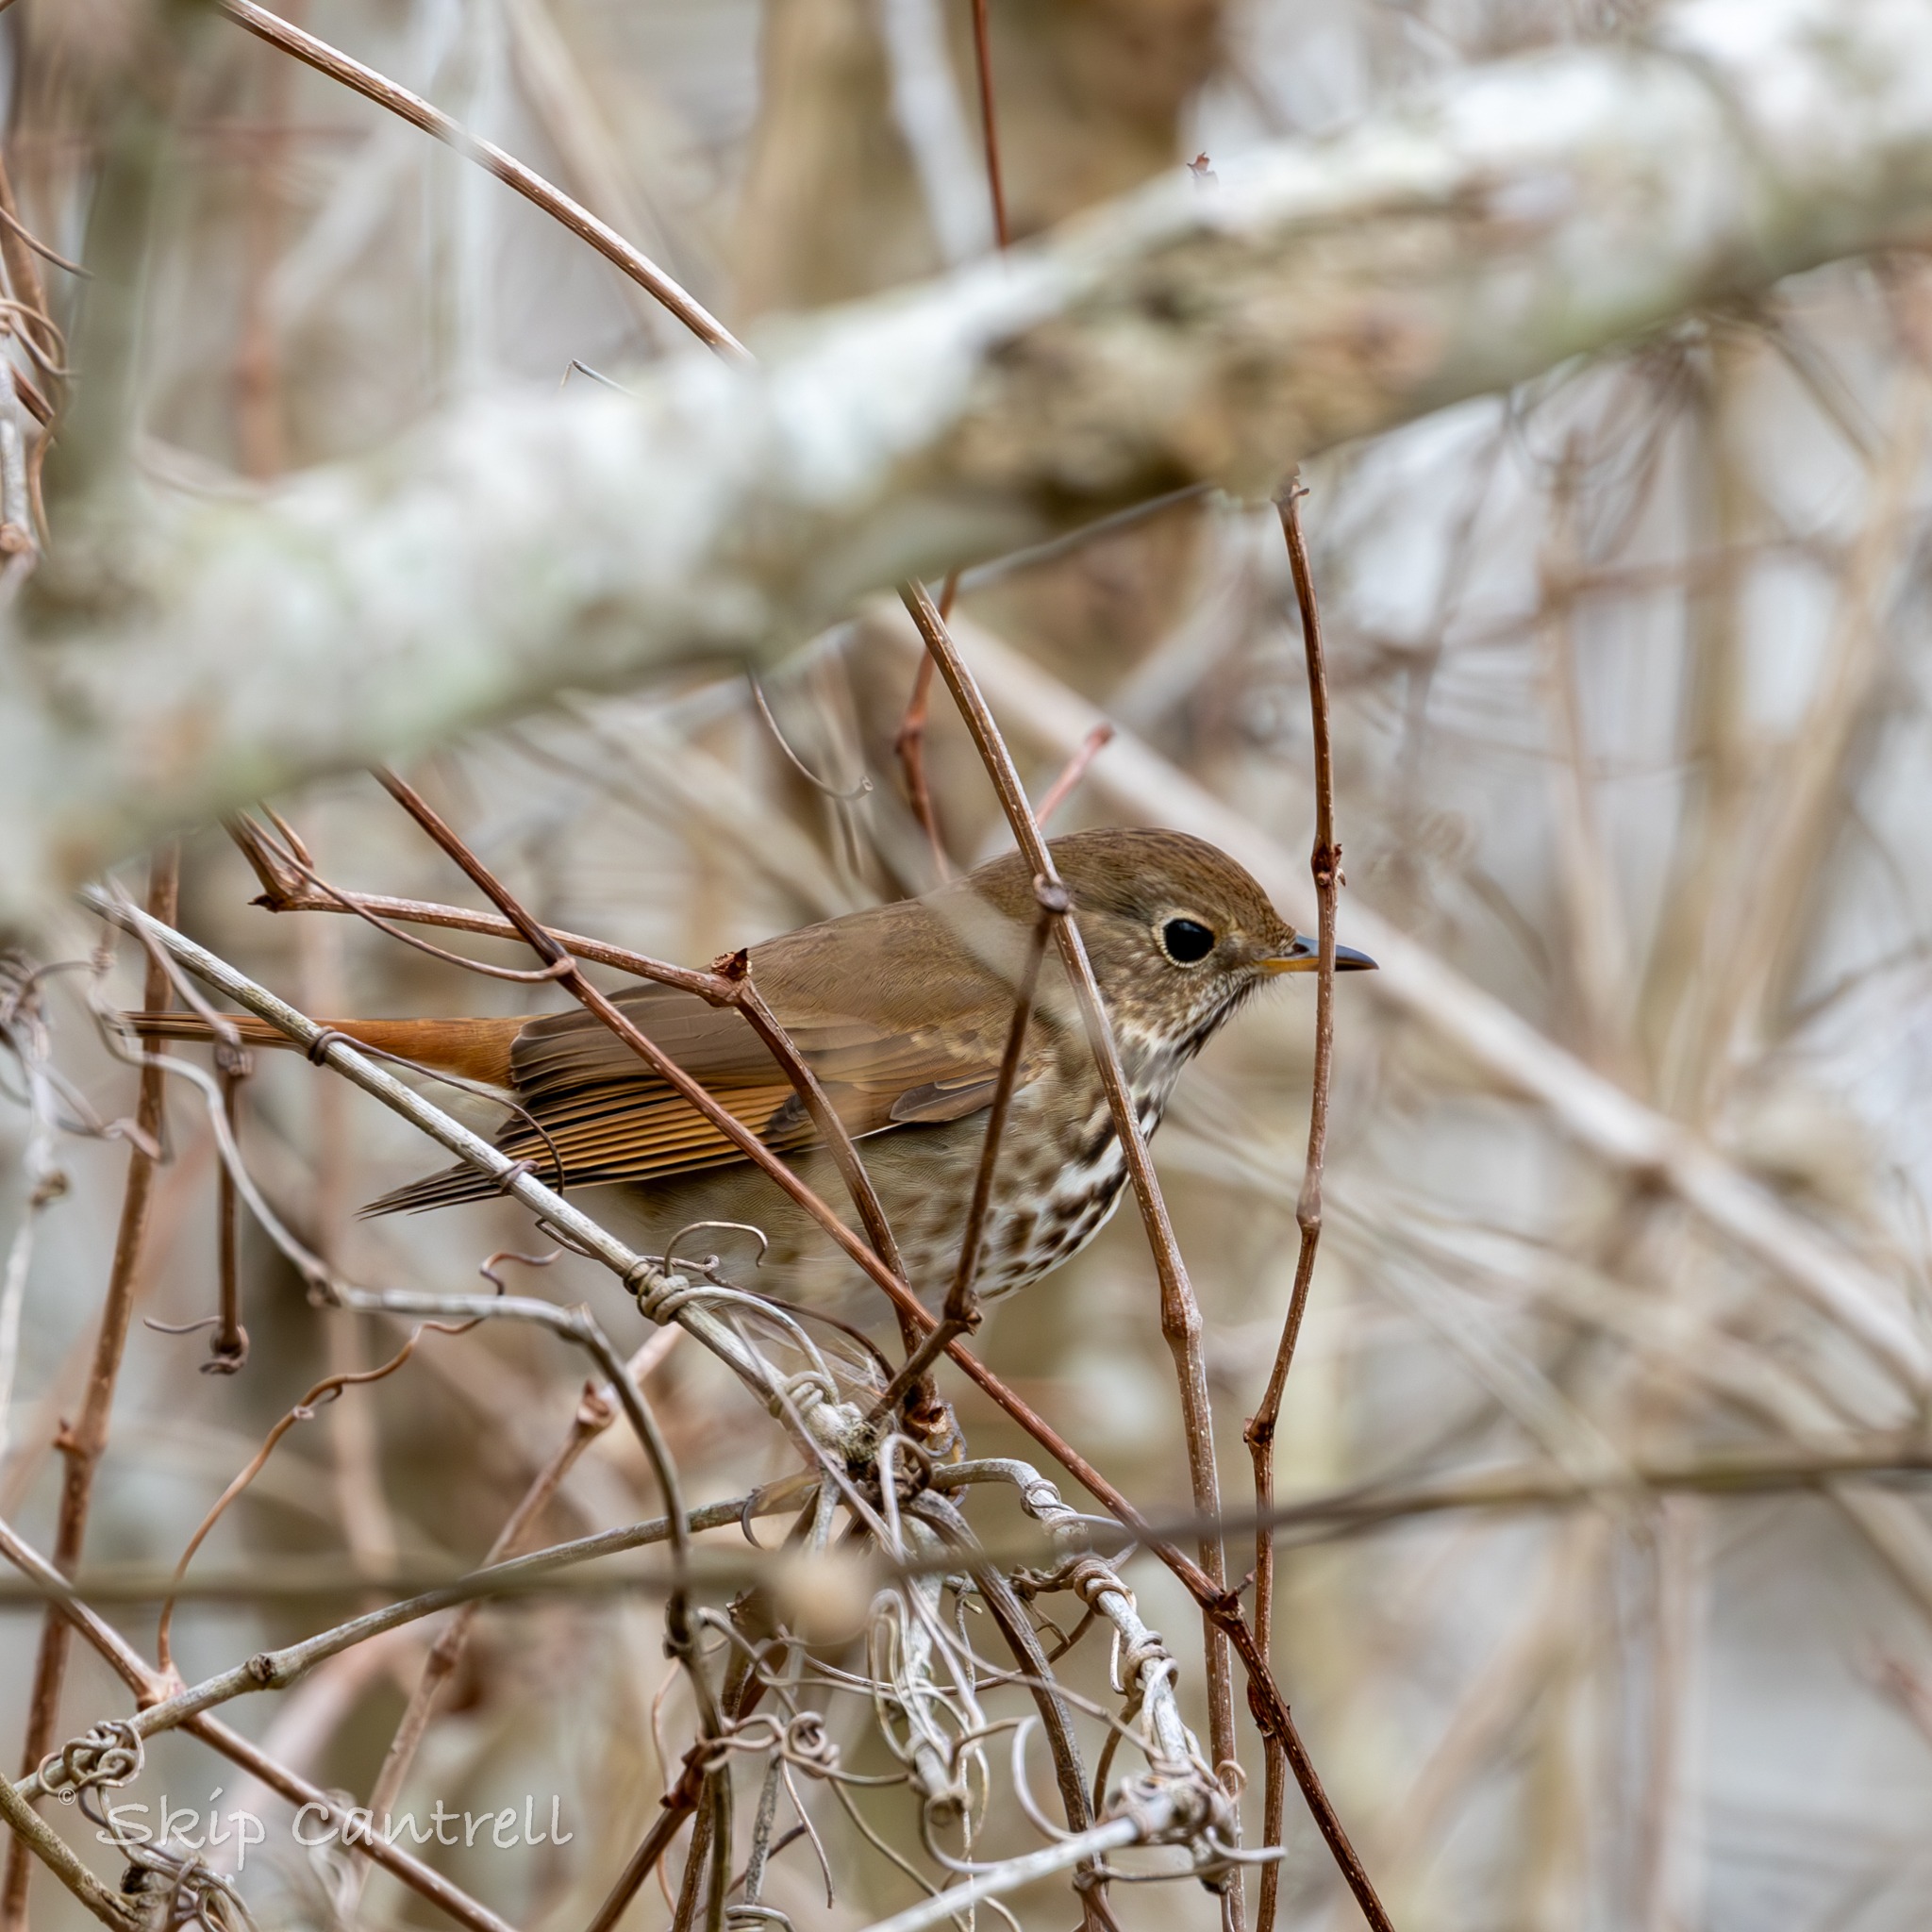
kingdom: Animalia
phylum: Chordata
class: Aves
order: Passeriformes
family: Turdidae
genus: Catharus
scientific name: Catharus guttatus
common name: Hermit thrush
